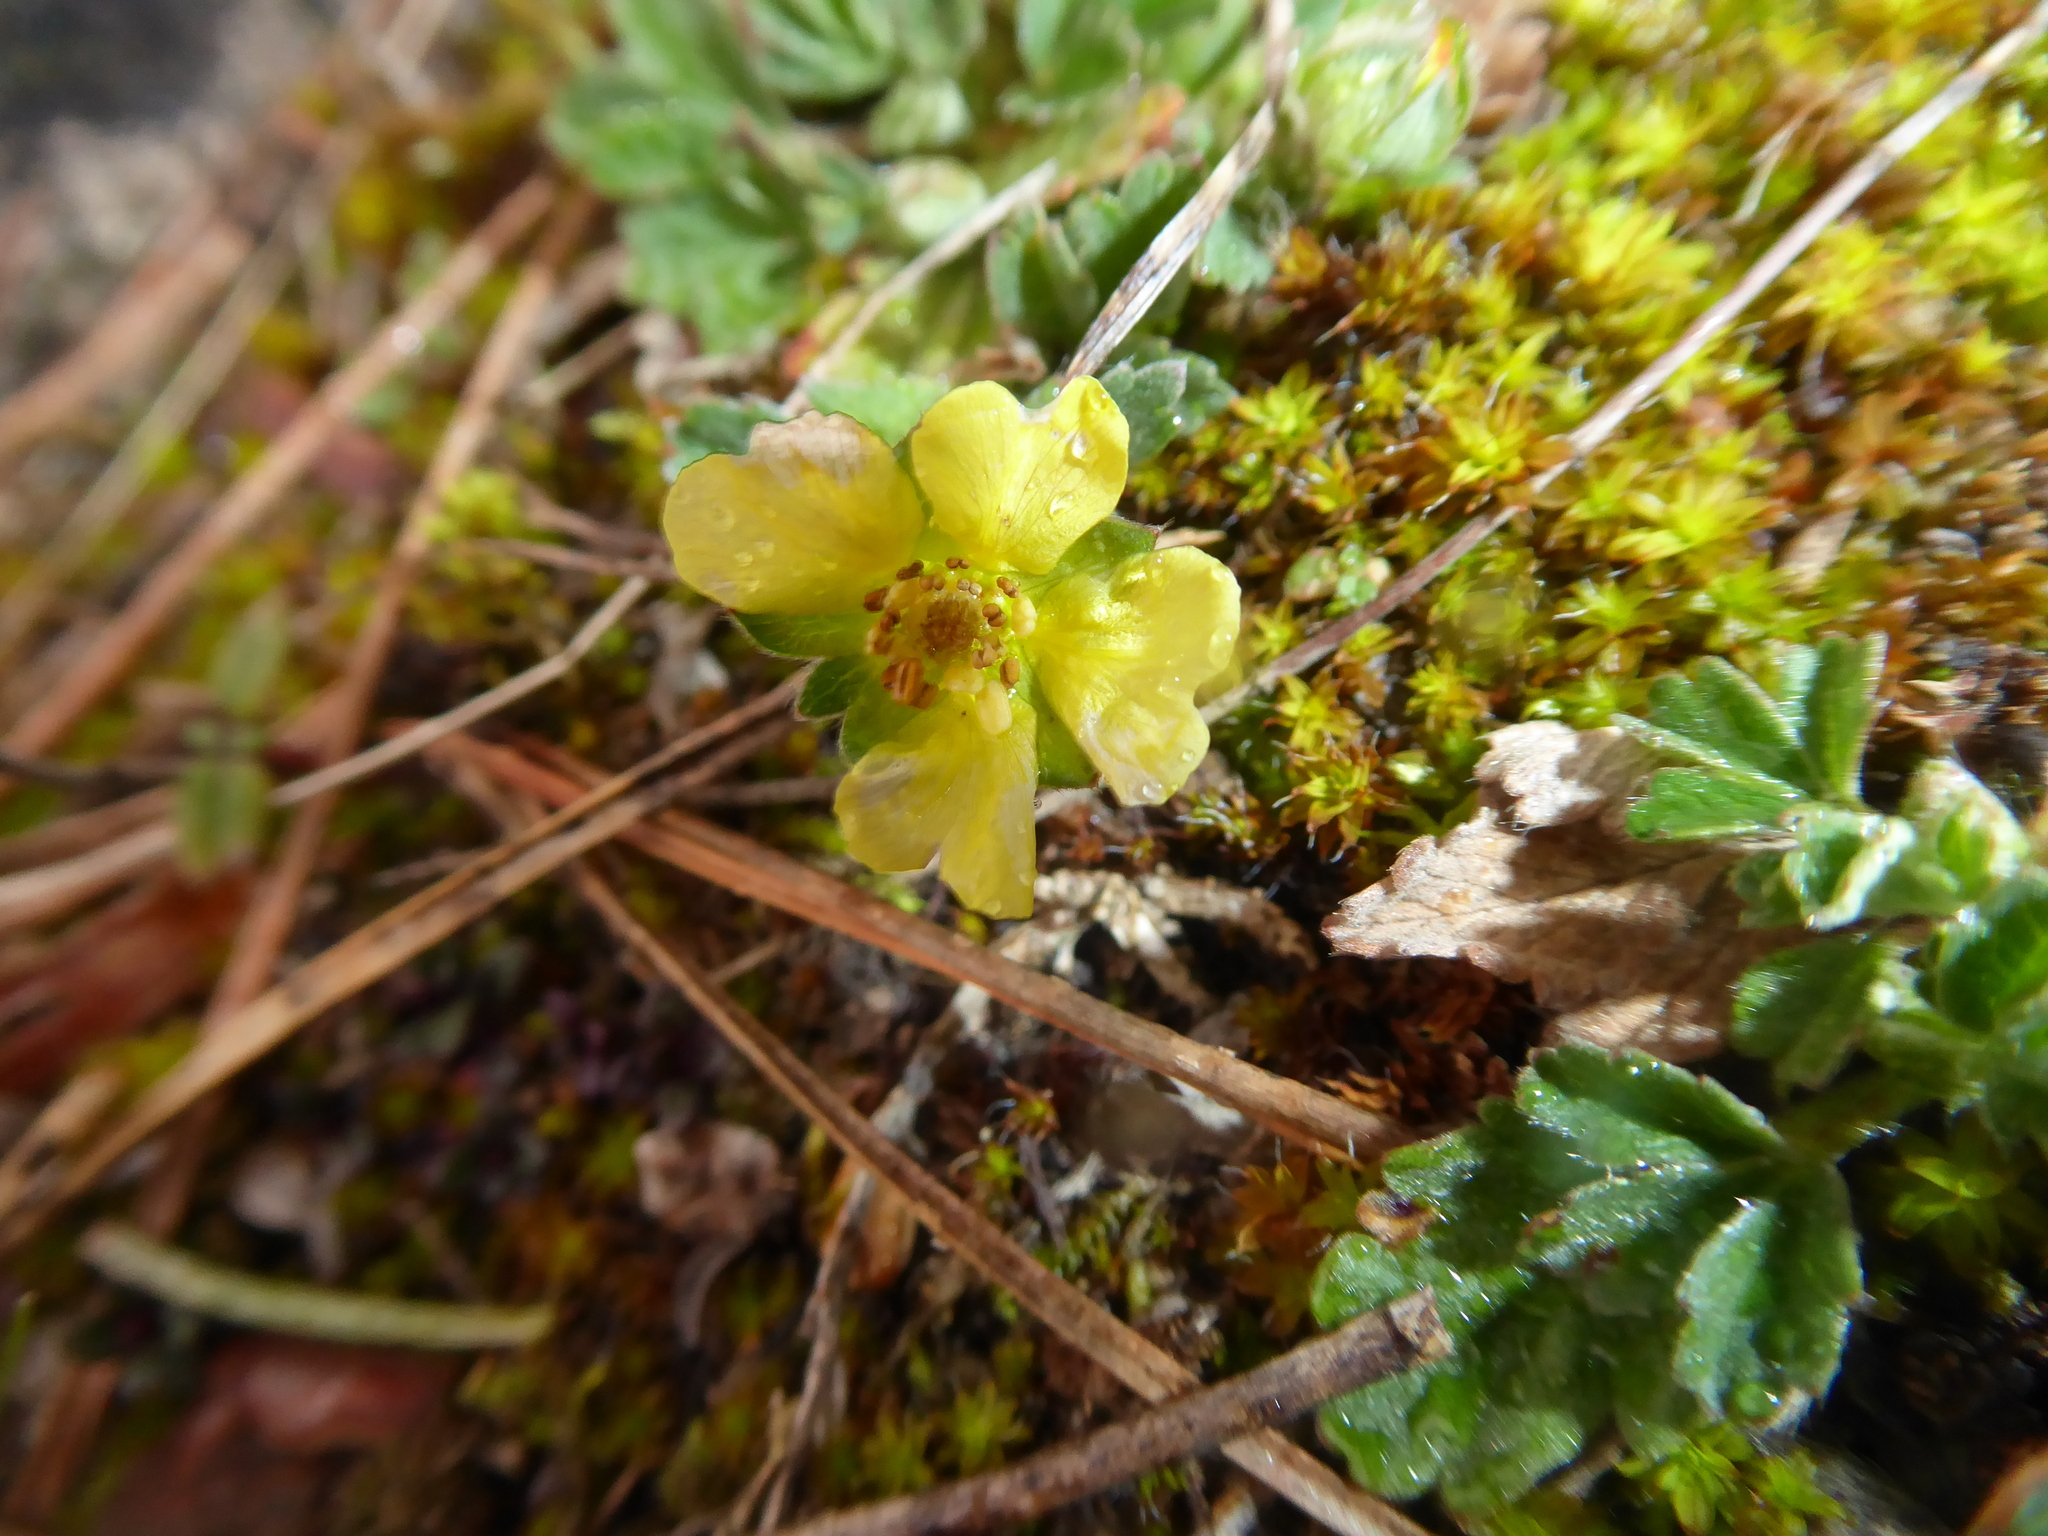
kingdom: Plantae
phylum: Tracheophyta
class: Magnoliopsida
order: Rosales
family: Rosaceae
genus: Potentilla
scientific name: Potentilla incana
